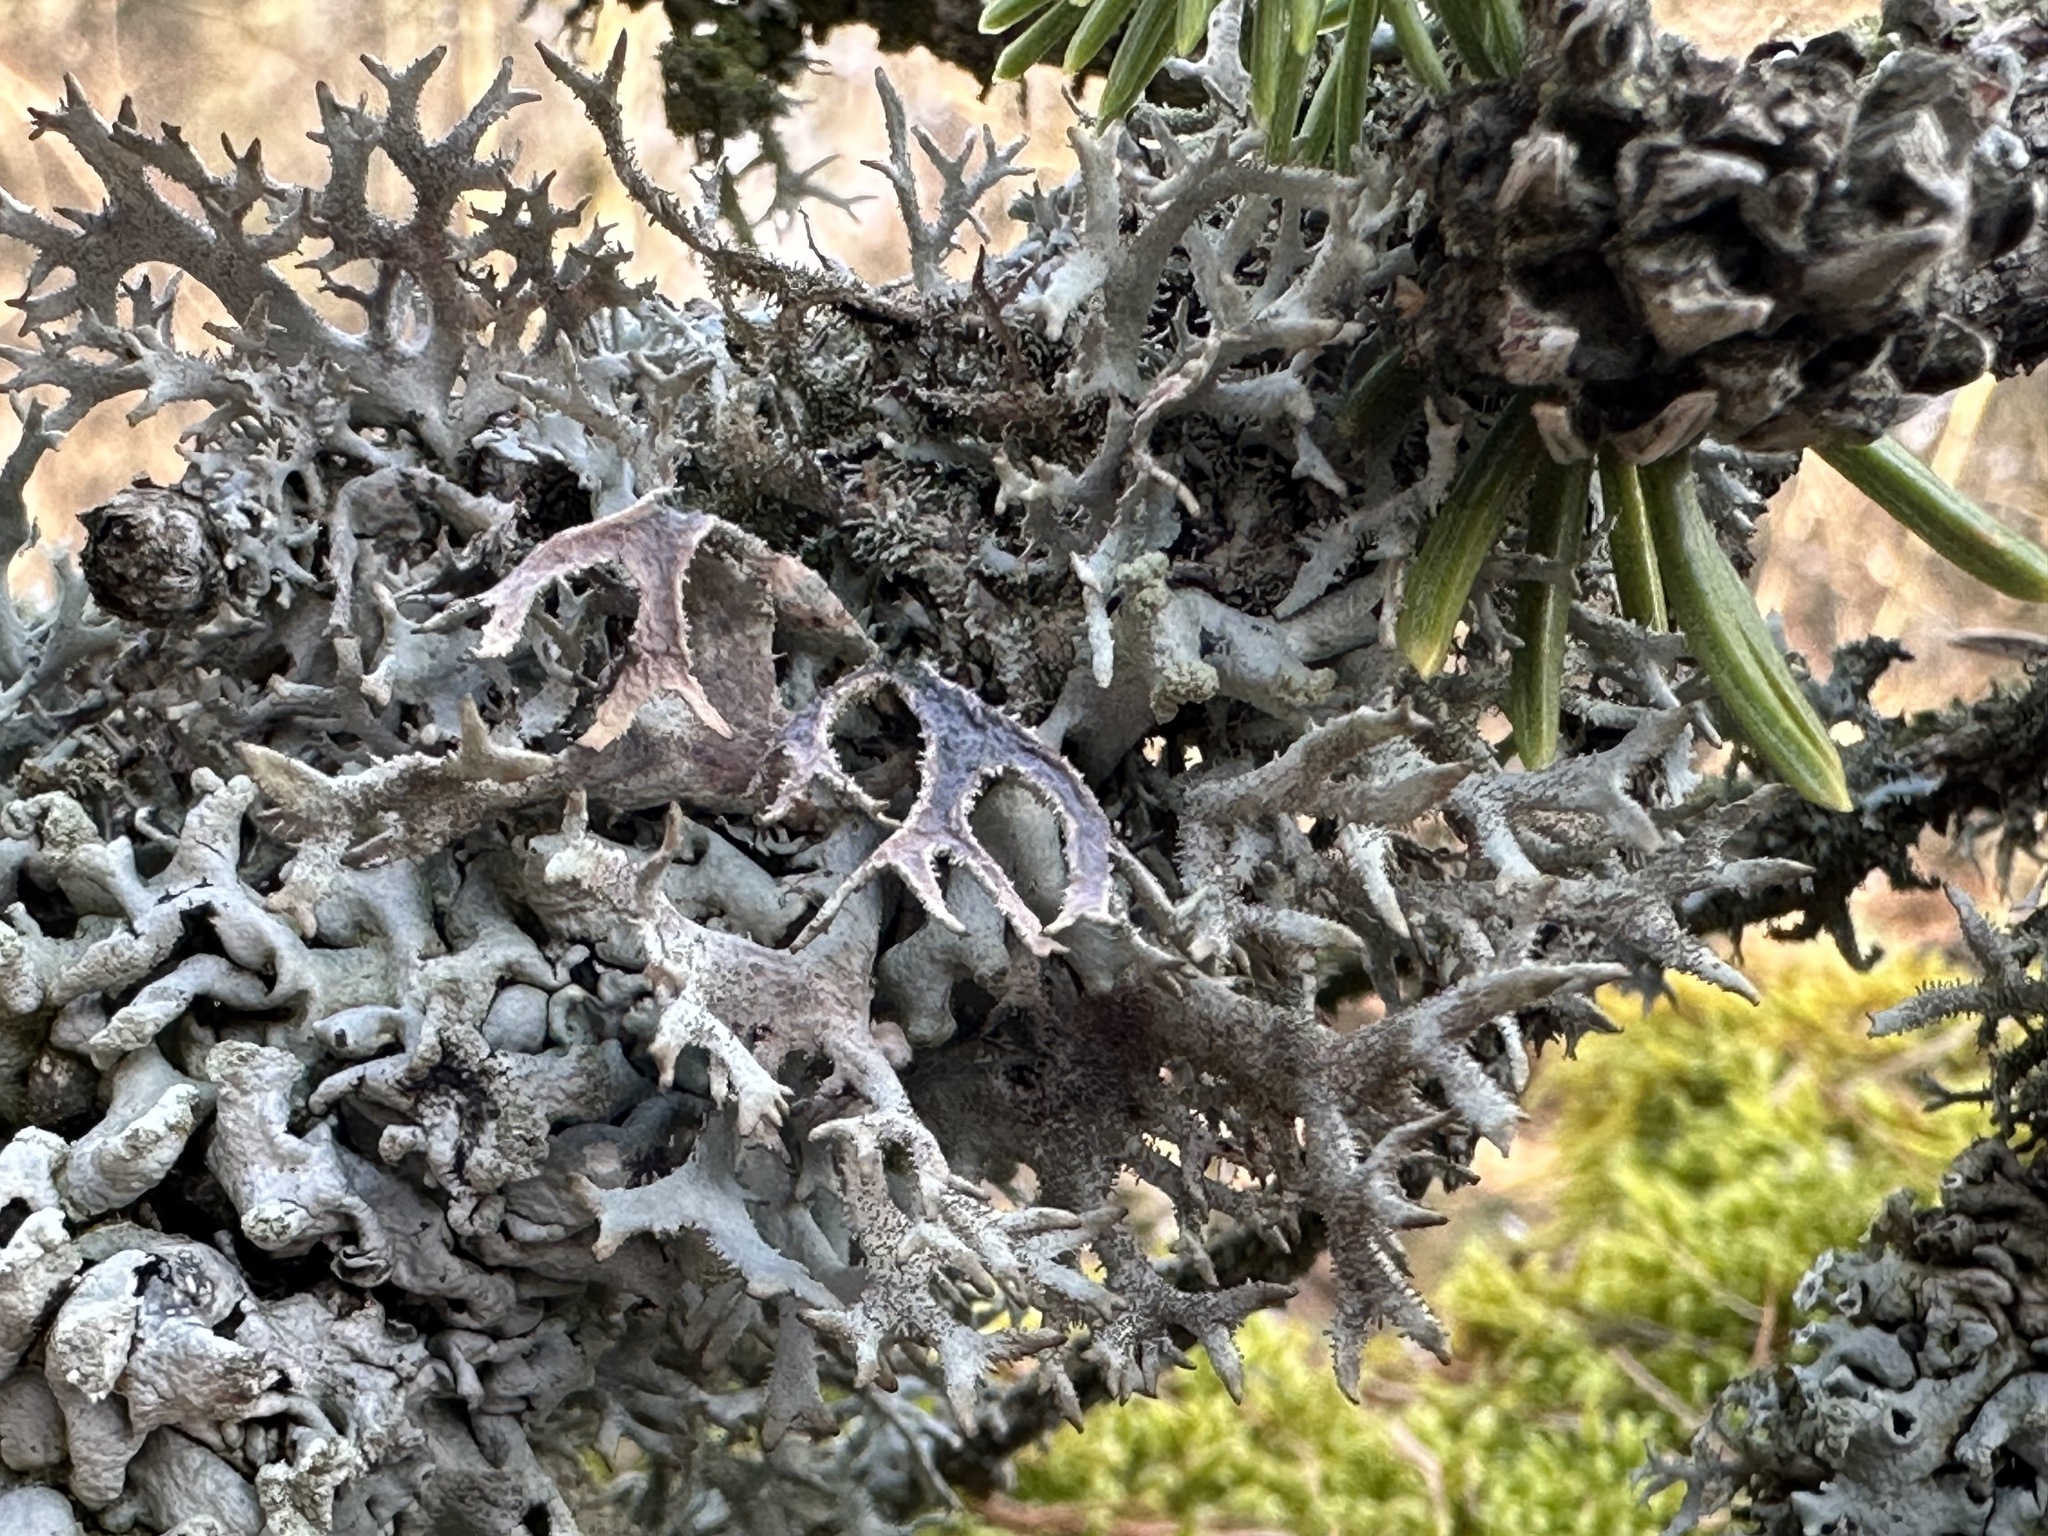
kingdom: Fungi
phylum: Ascomycota
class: Lecanoromycetes
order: Lecanorales
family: Parmeliaceae
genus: Pseudevernia
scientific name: Pseudevernia furfuracea
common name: Tree moss
